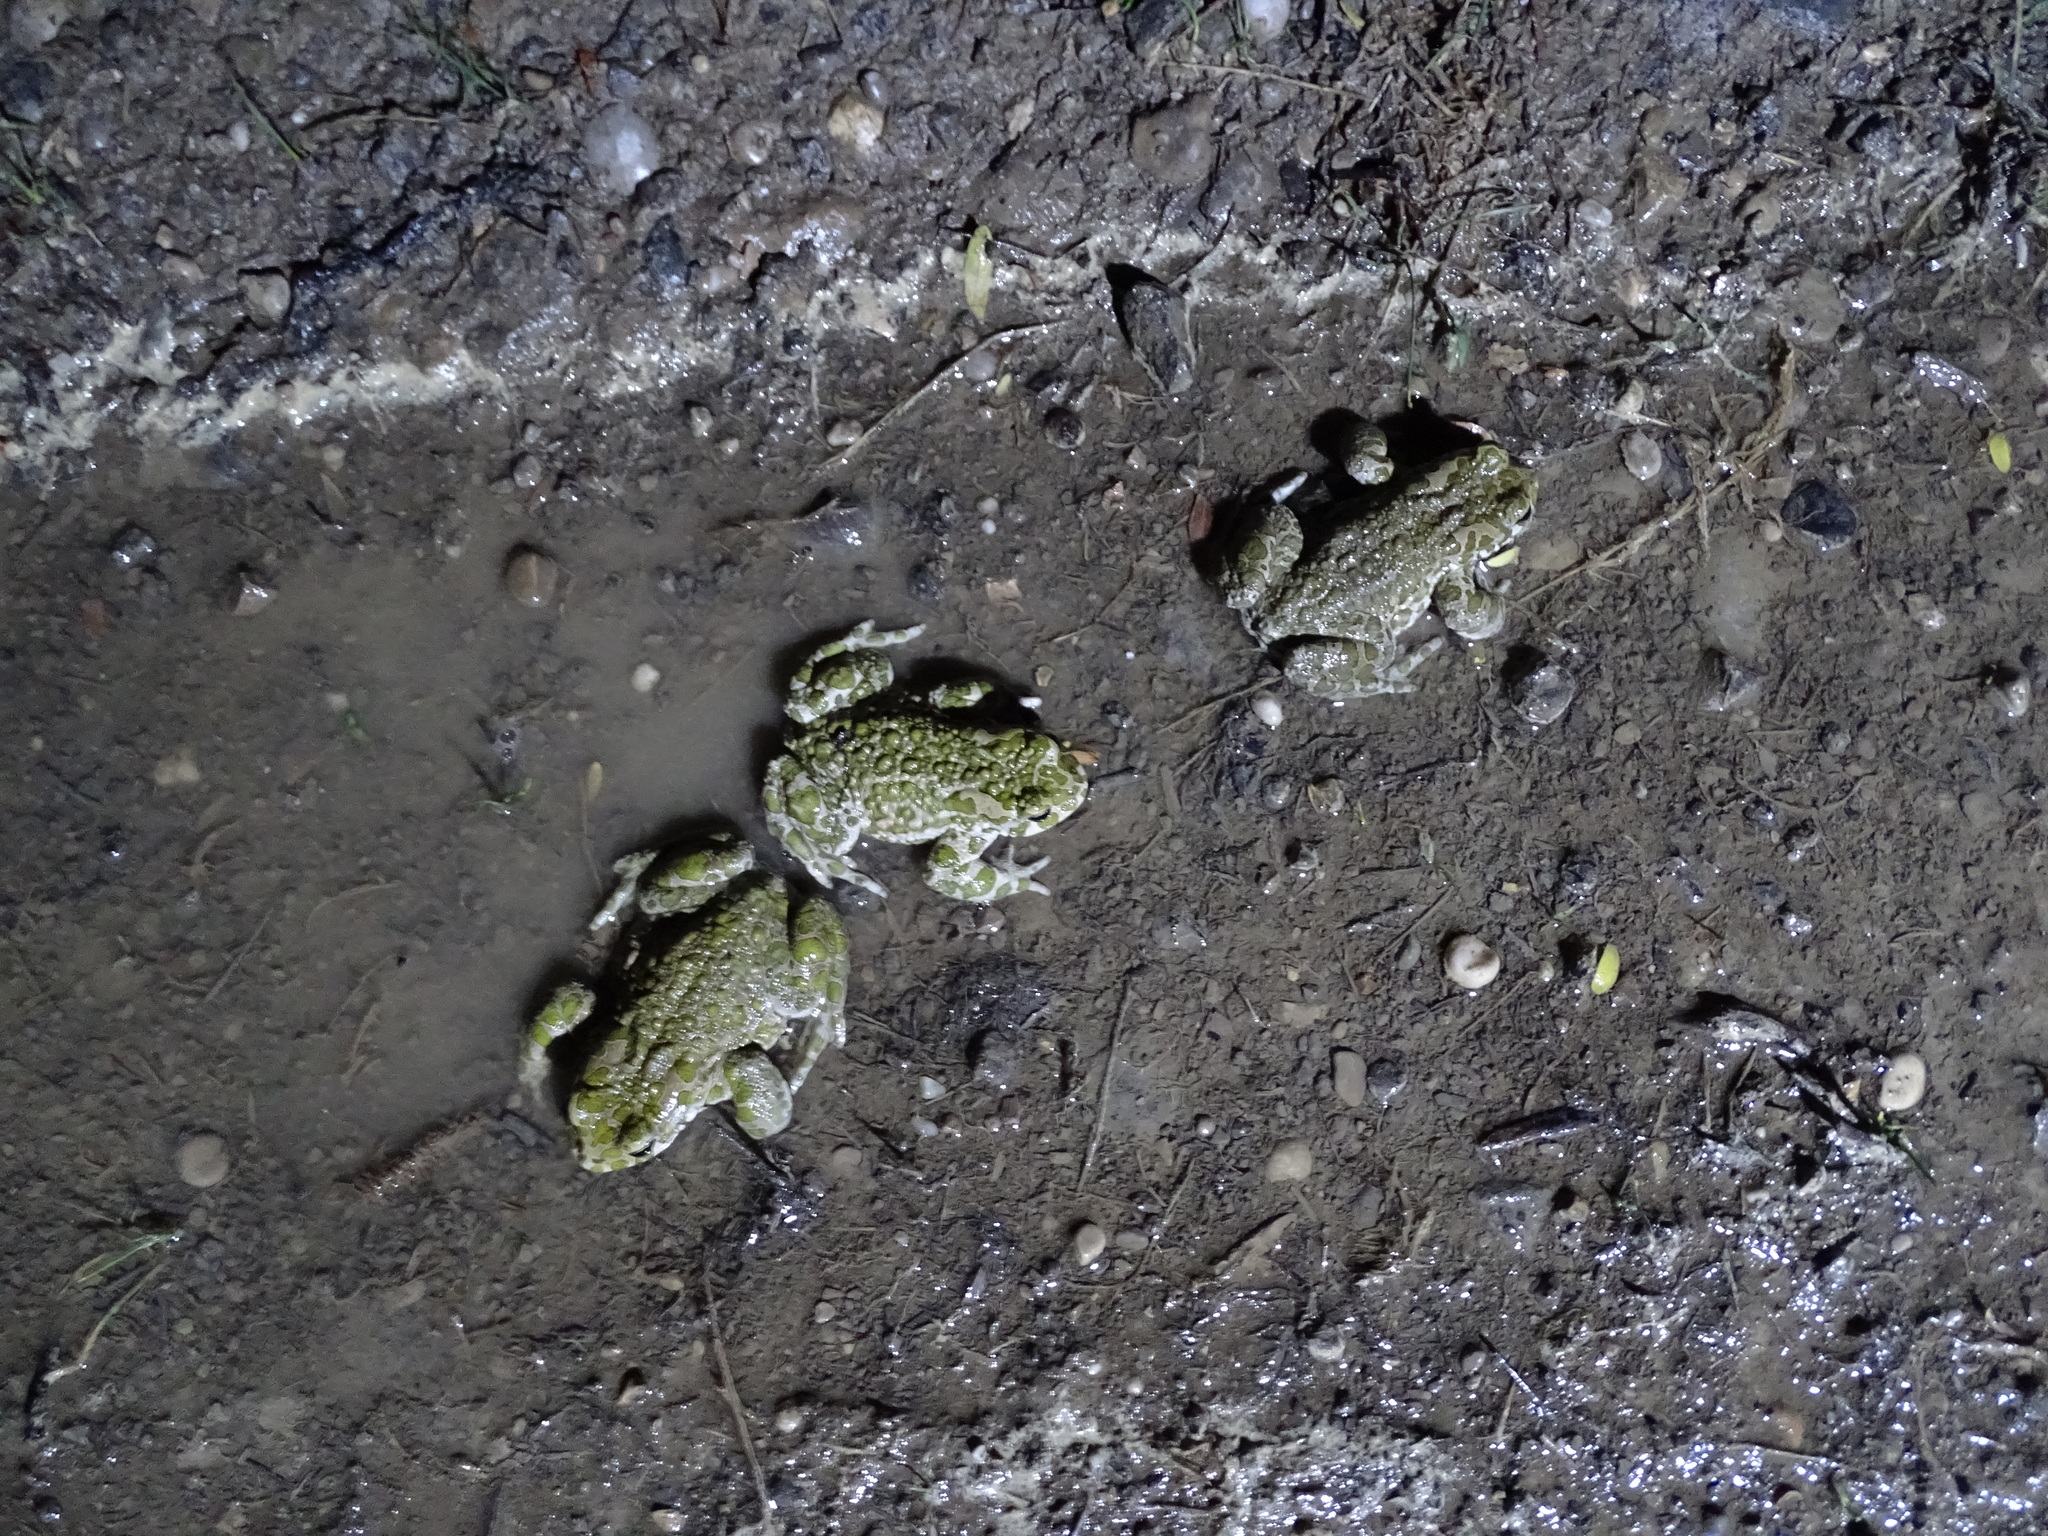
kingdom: Animalia
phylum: Chordata
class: Amphibia
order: Anura
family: Bufonidae
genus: Bufotes
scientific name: Bufotes viridis
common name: European green toad
